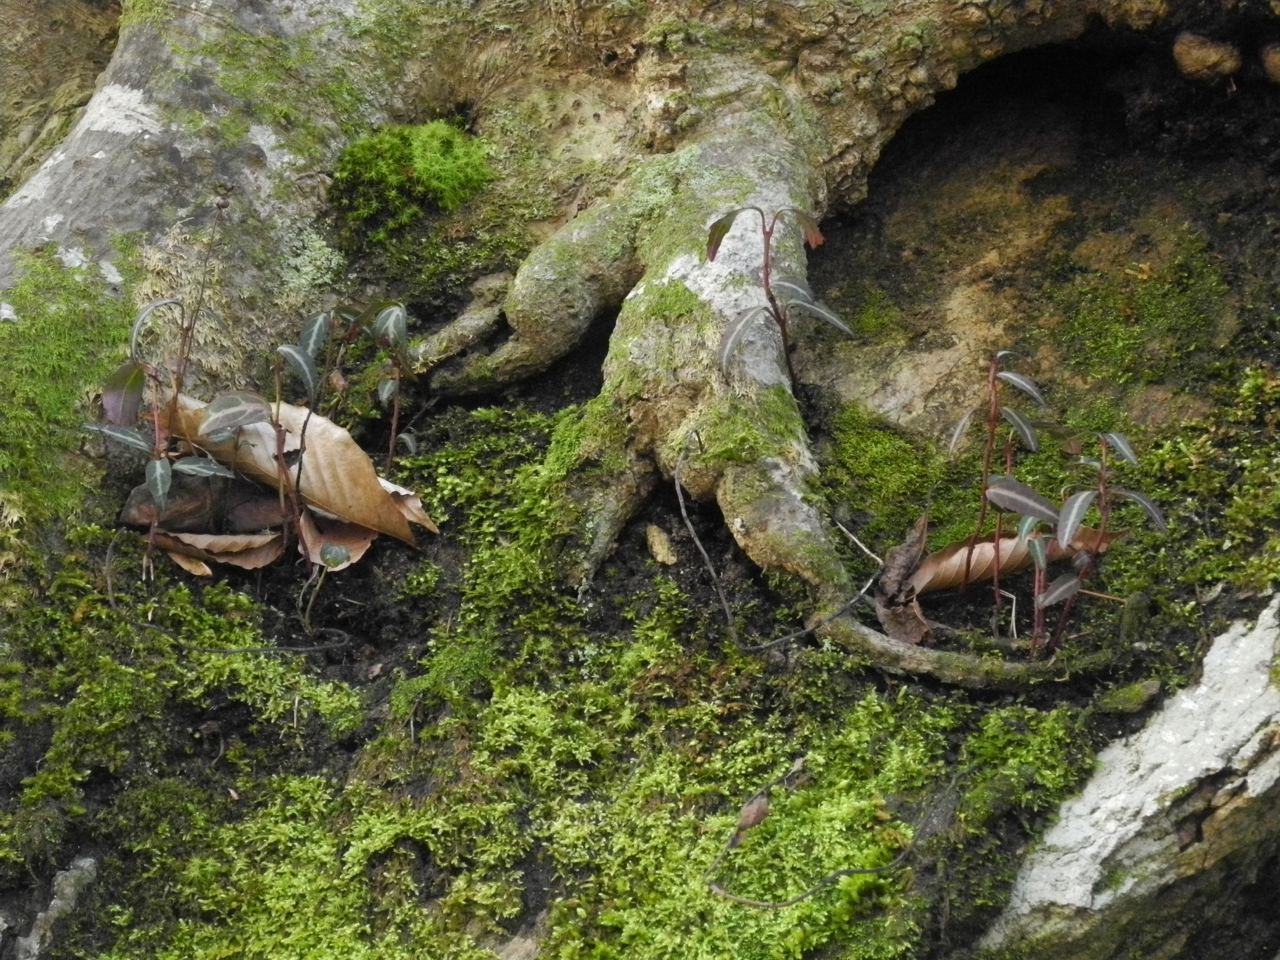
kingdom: Plantae
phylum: Tracheophyta
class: Magnoliopsida
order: Ericales
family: Ericaceae
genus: Chimaphila
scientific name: Chimaphila maculata
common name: Spotted pipsissewa
